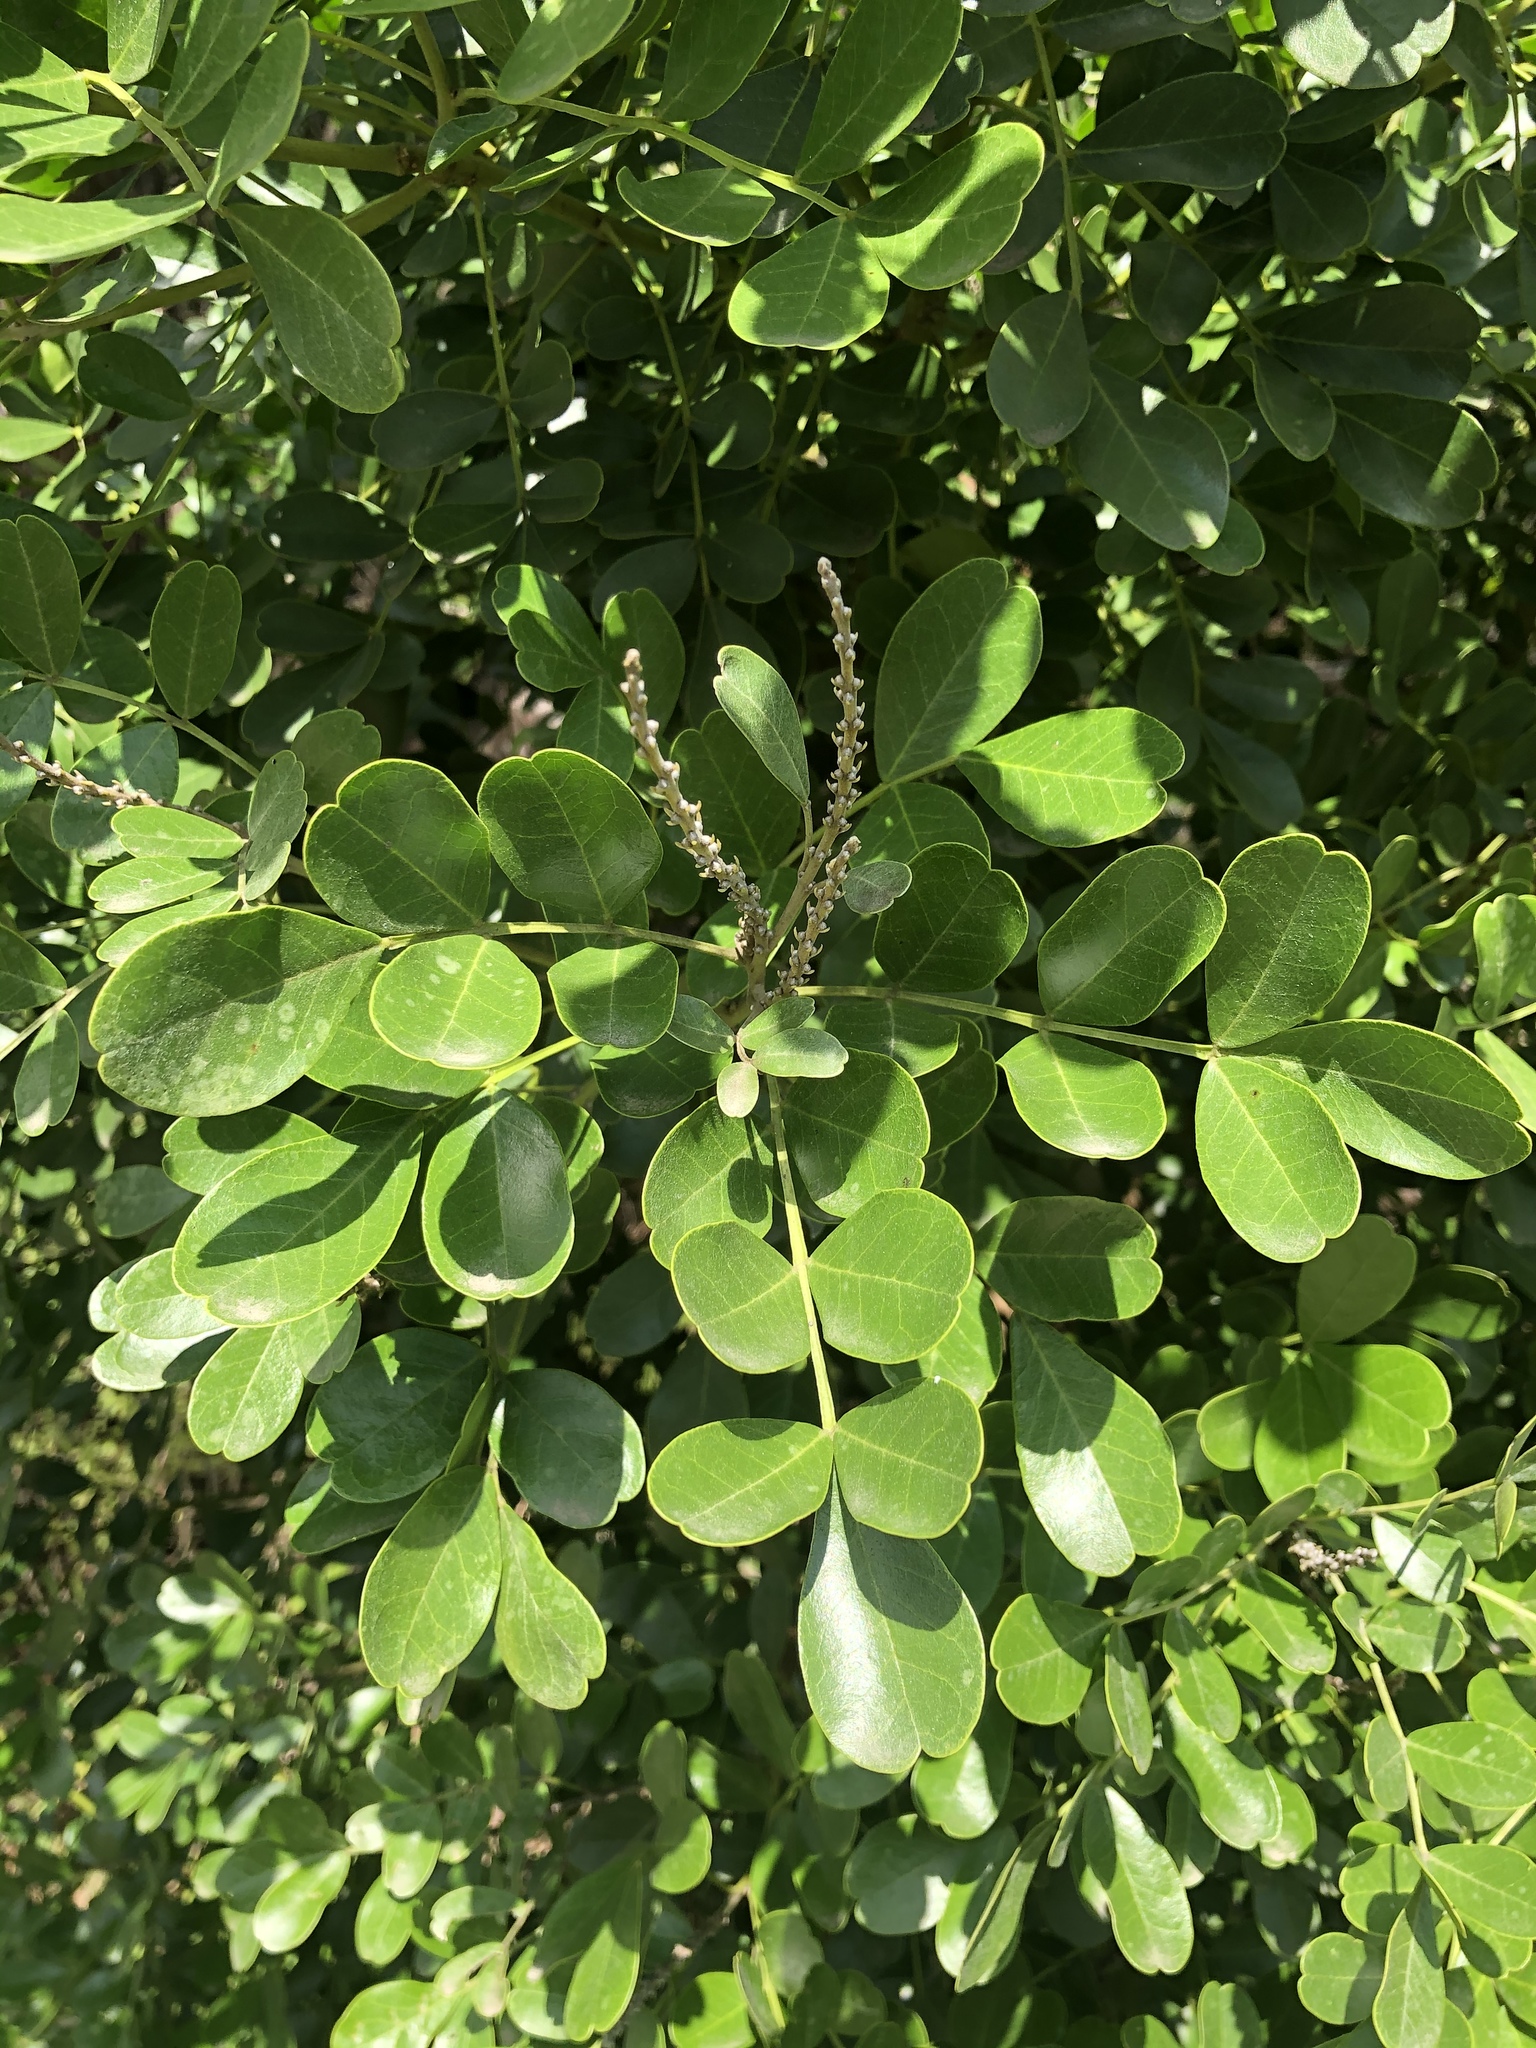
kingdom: Plantae
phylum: Tracheophyta
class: Magnoliopsida
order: Fabales
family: Fabaceae
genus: Dermatophyllum
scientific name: Dermatophyllum secundiflorum
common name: Texas-mountain-laurel
